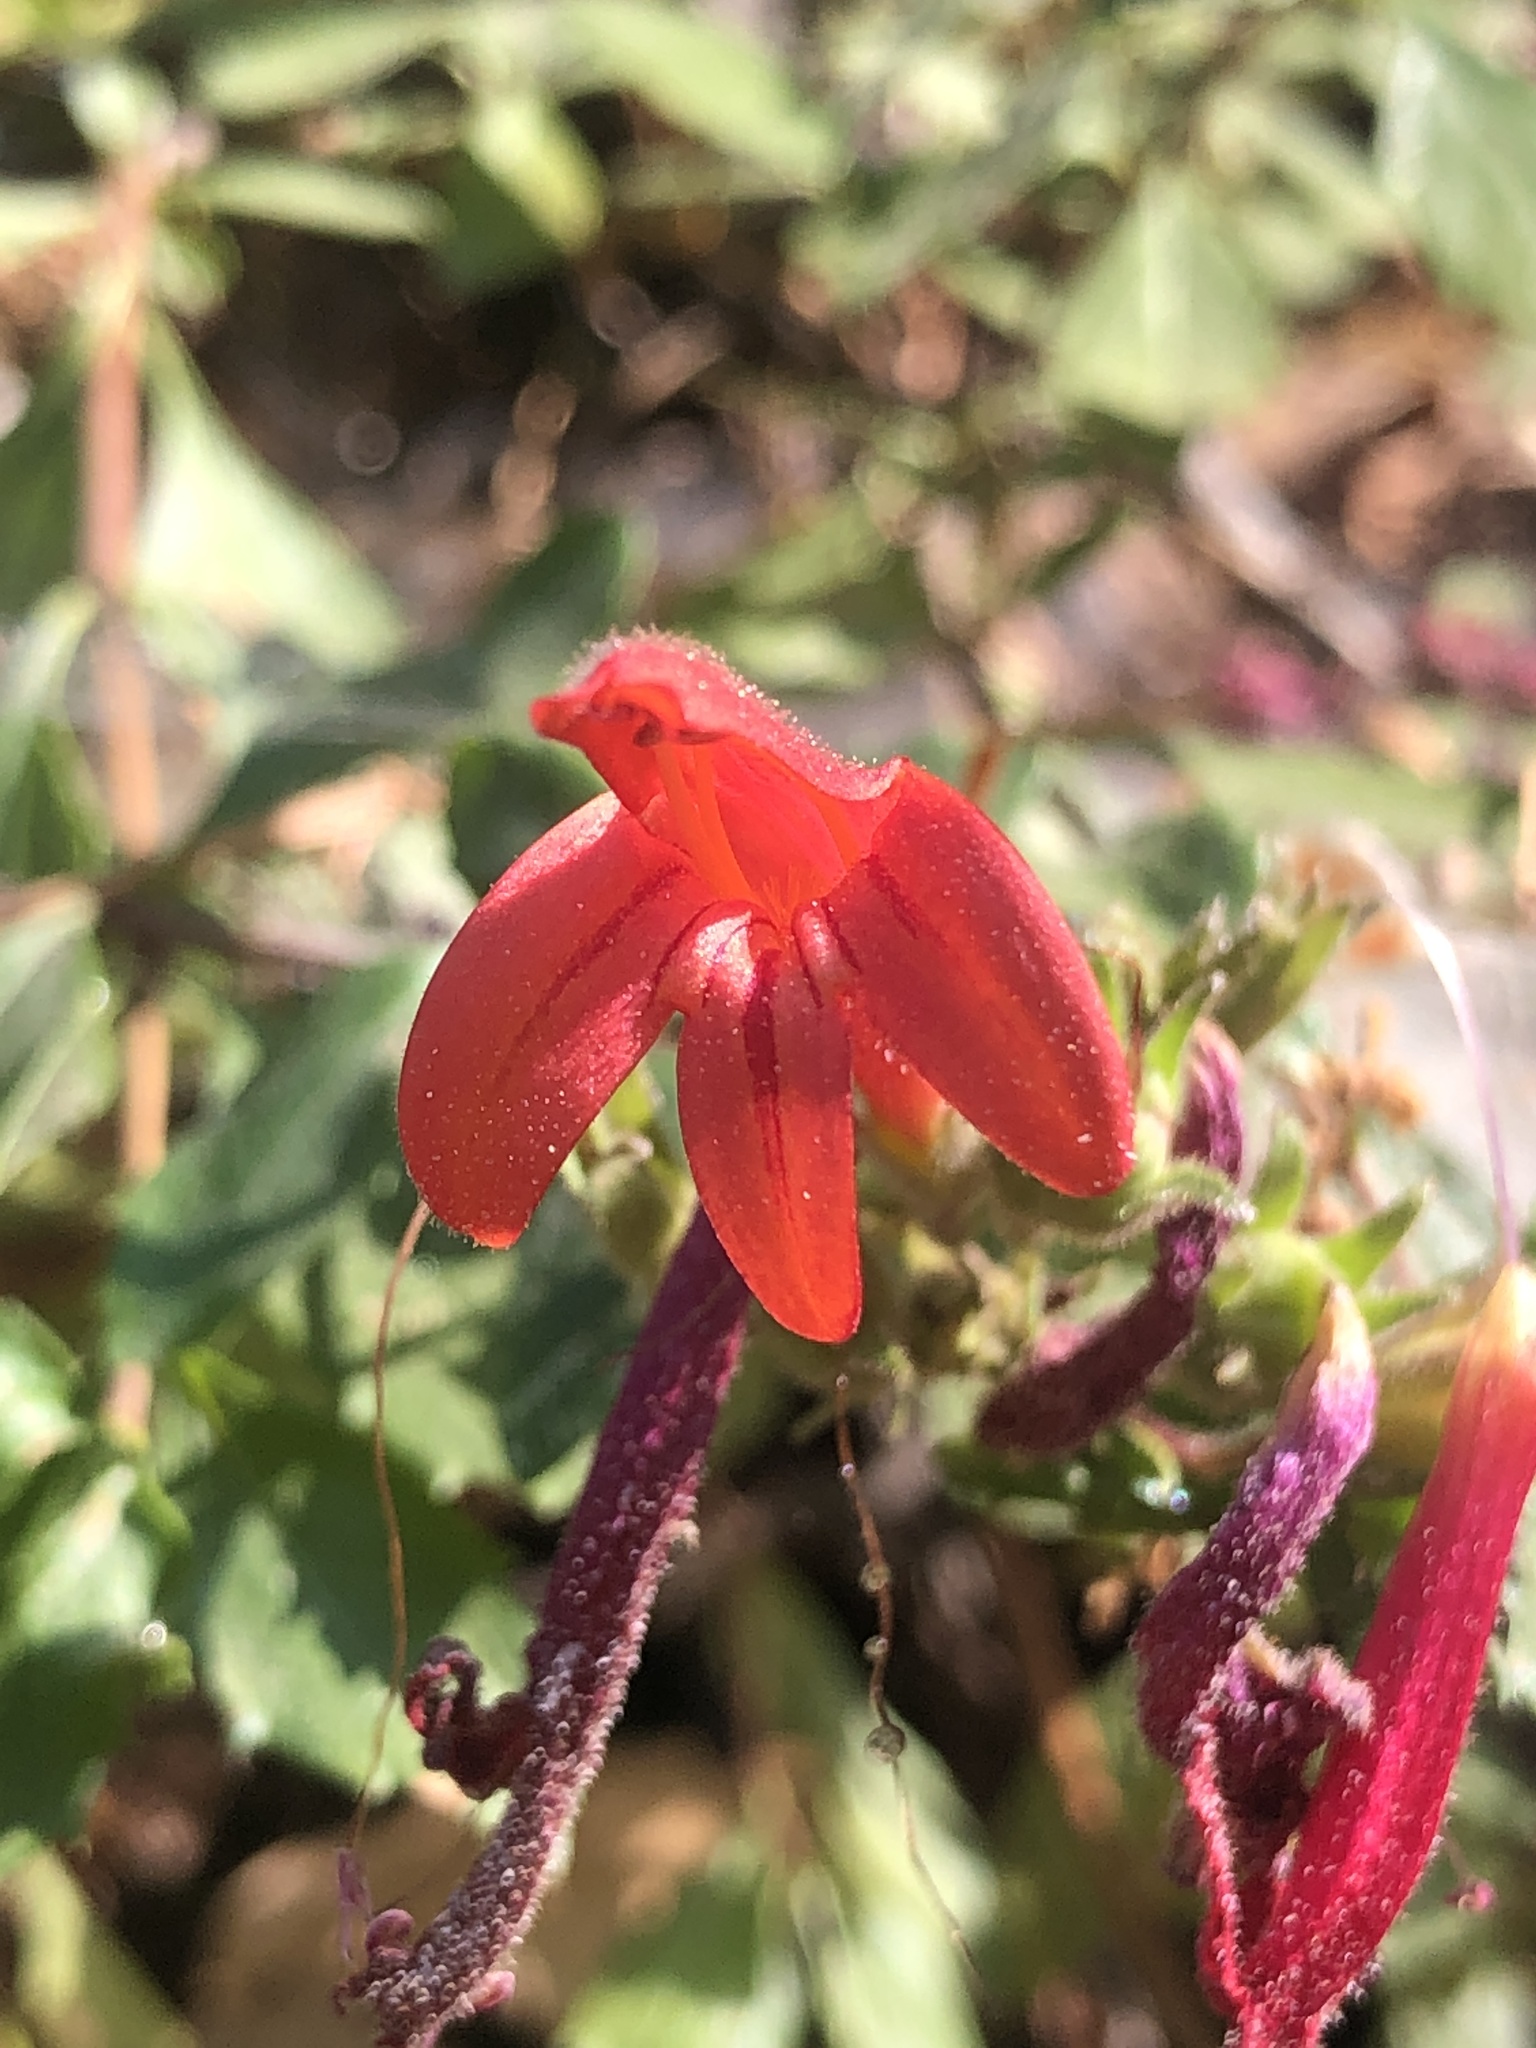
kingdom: Plantae
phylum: Tracheophyta
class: Magnoliopsida
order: Lamiales
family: Plantaginaceae
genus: Keckiella
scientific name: Keckiella corymbosa
